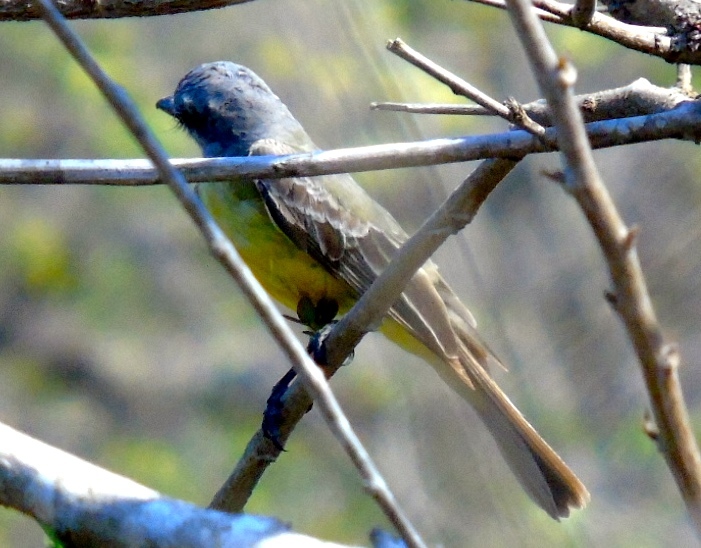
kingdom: Animalia
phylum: Chordata
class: Aves
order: Passeriformes
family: Tyrannidae
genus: Tyrannus
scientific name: Tyrannus melancholicus
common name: Tropical kingbird
